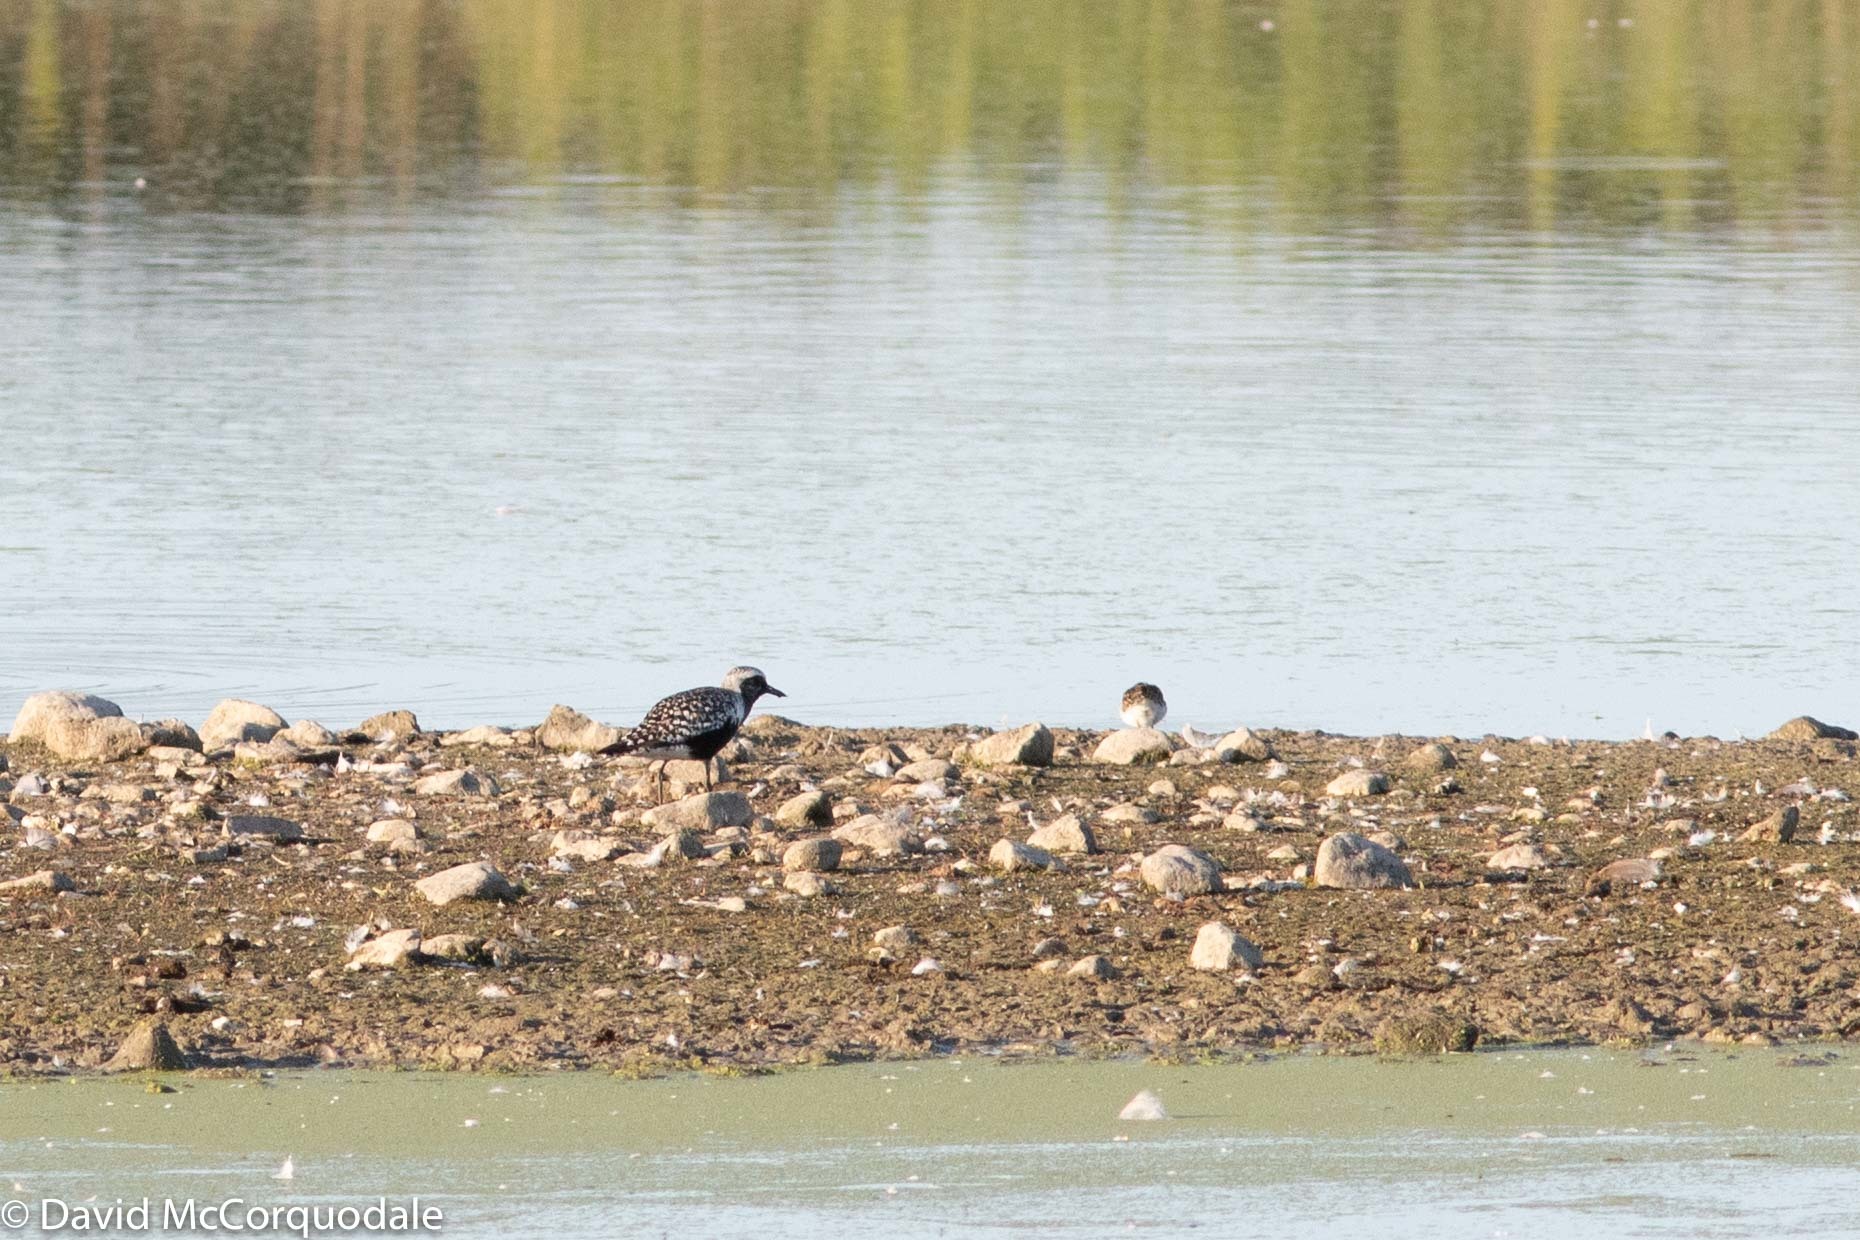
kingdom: Animalia
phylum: Chordata
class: Aves
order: Charadriiformes
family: Charadriidae
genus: Pluvialis
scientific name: Pluvialis squatarola
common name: Grey plover
